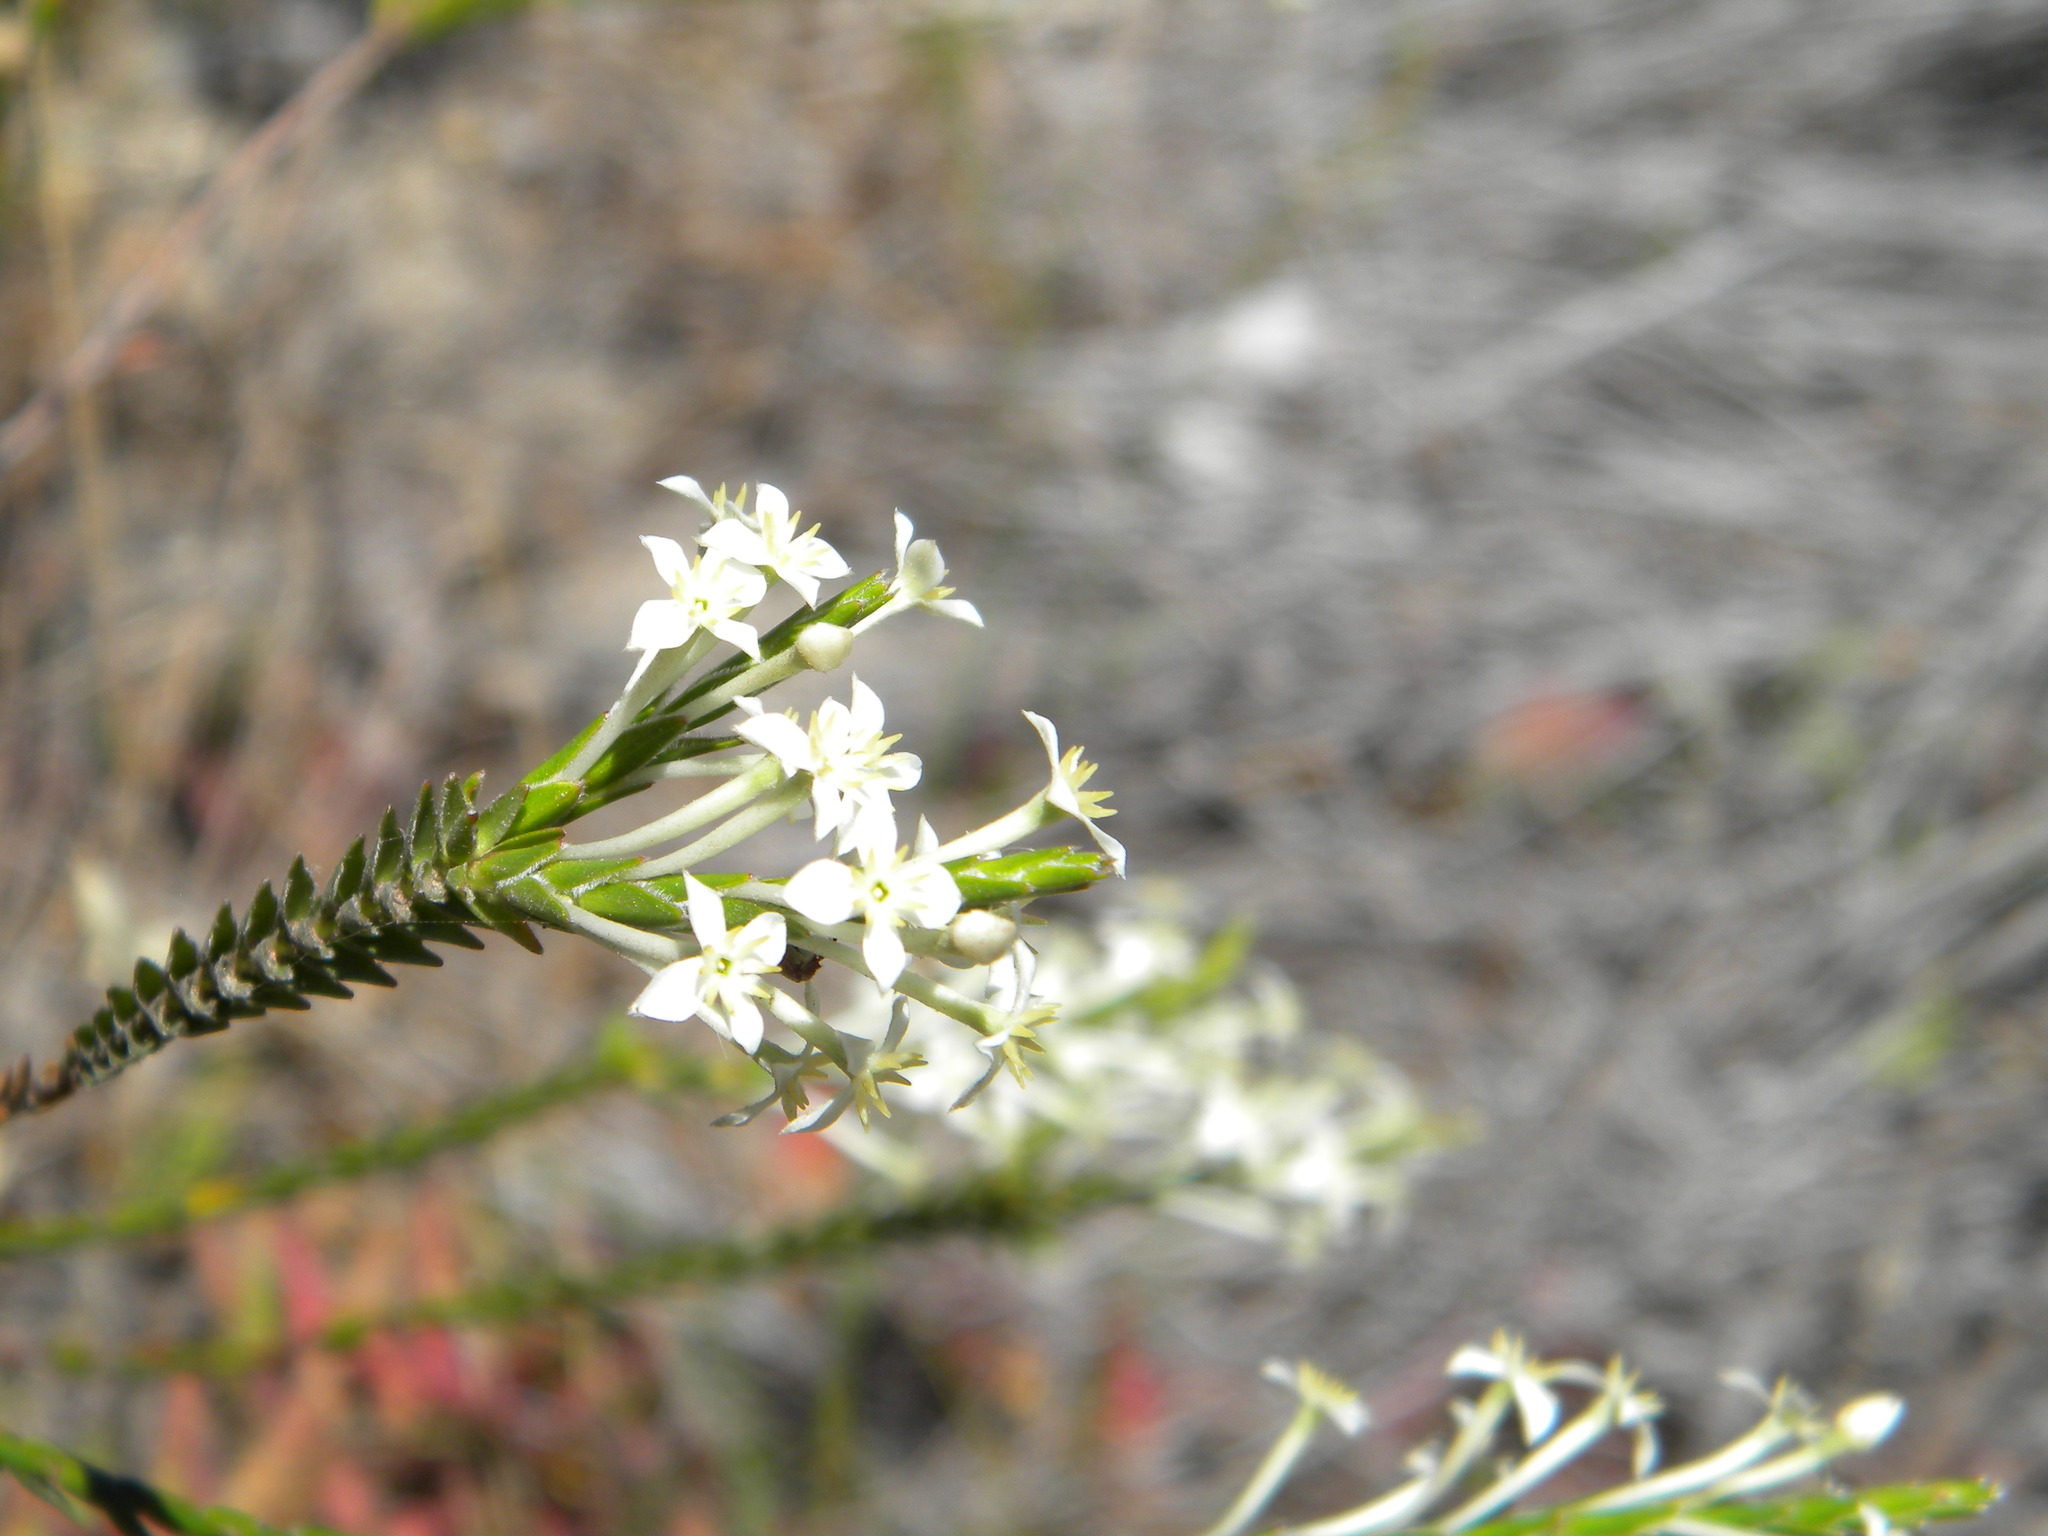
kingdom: Plantae
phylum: Tracheophyta
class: Magnoliopsida
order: Malvales
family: Thymelaeaceae
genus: Struthiola
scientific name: Struthiola ciliata
